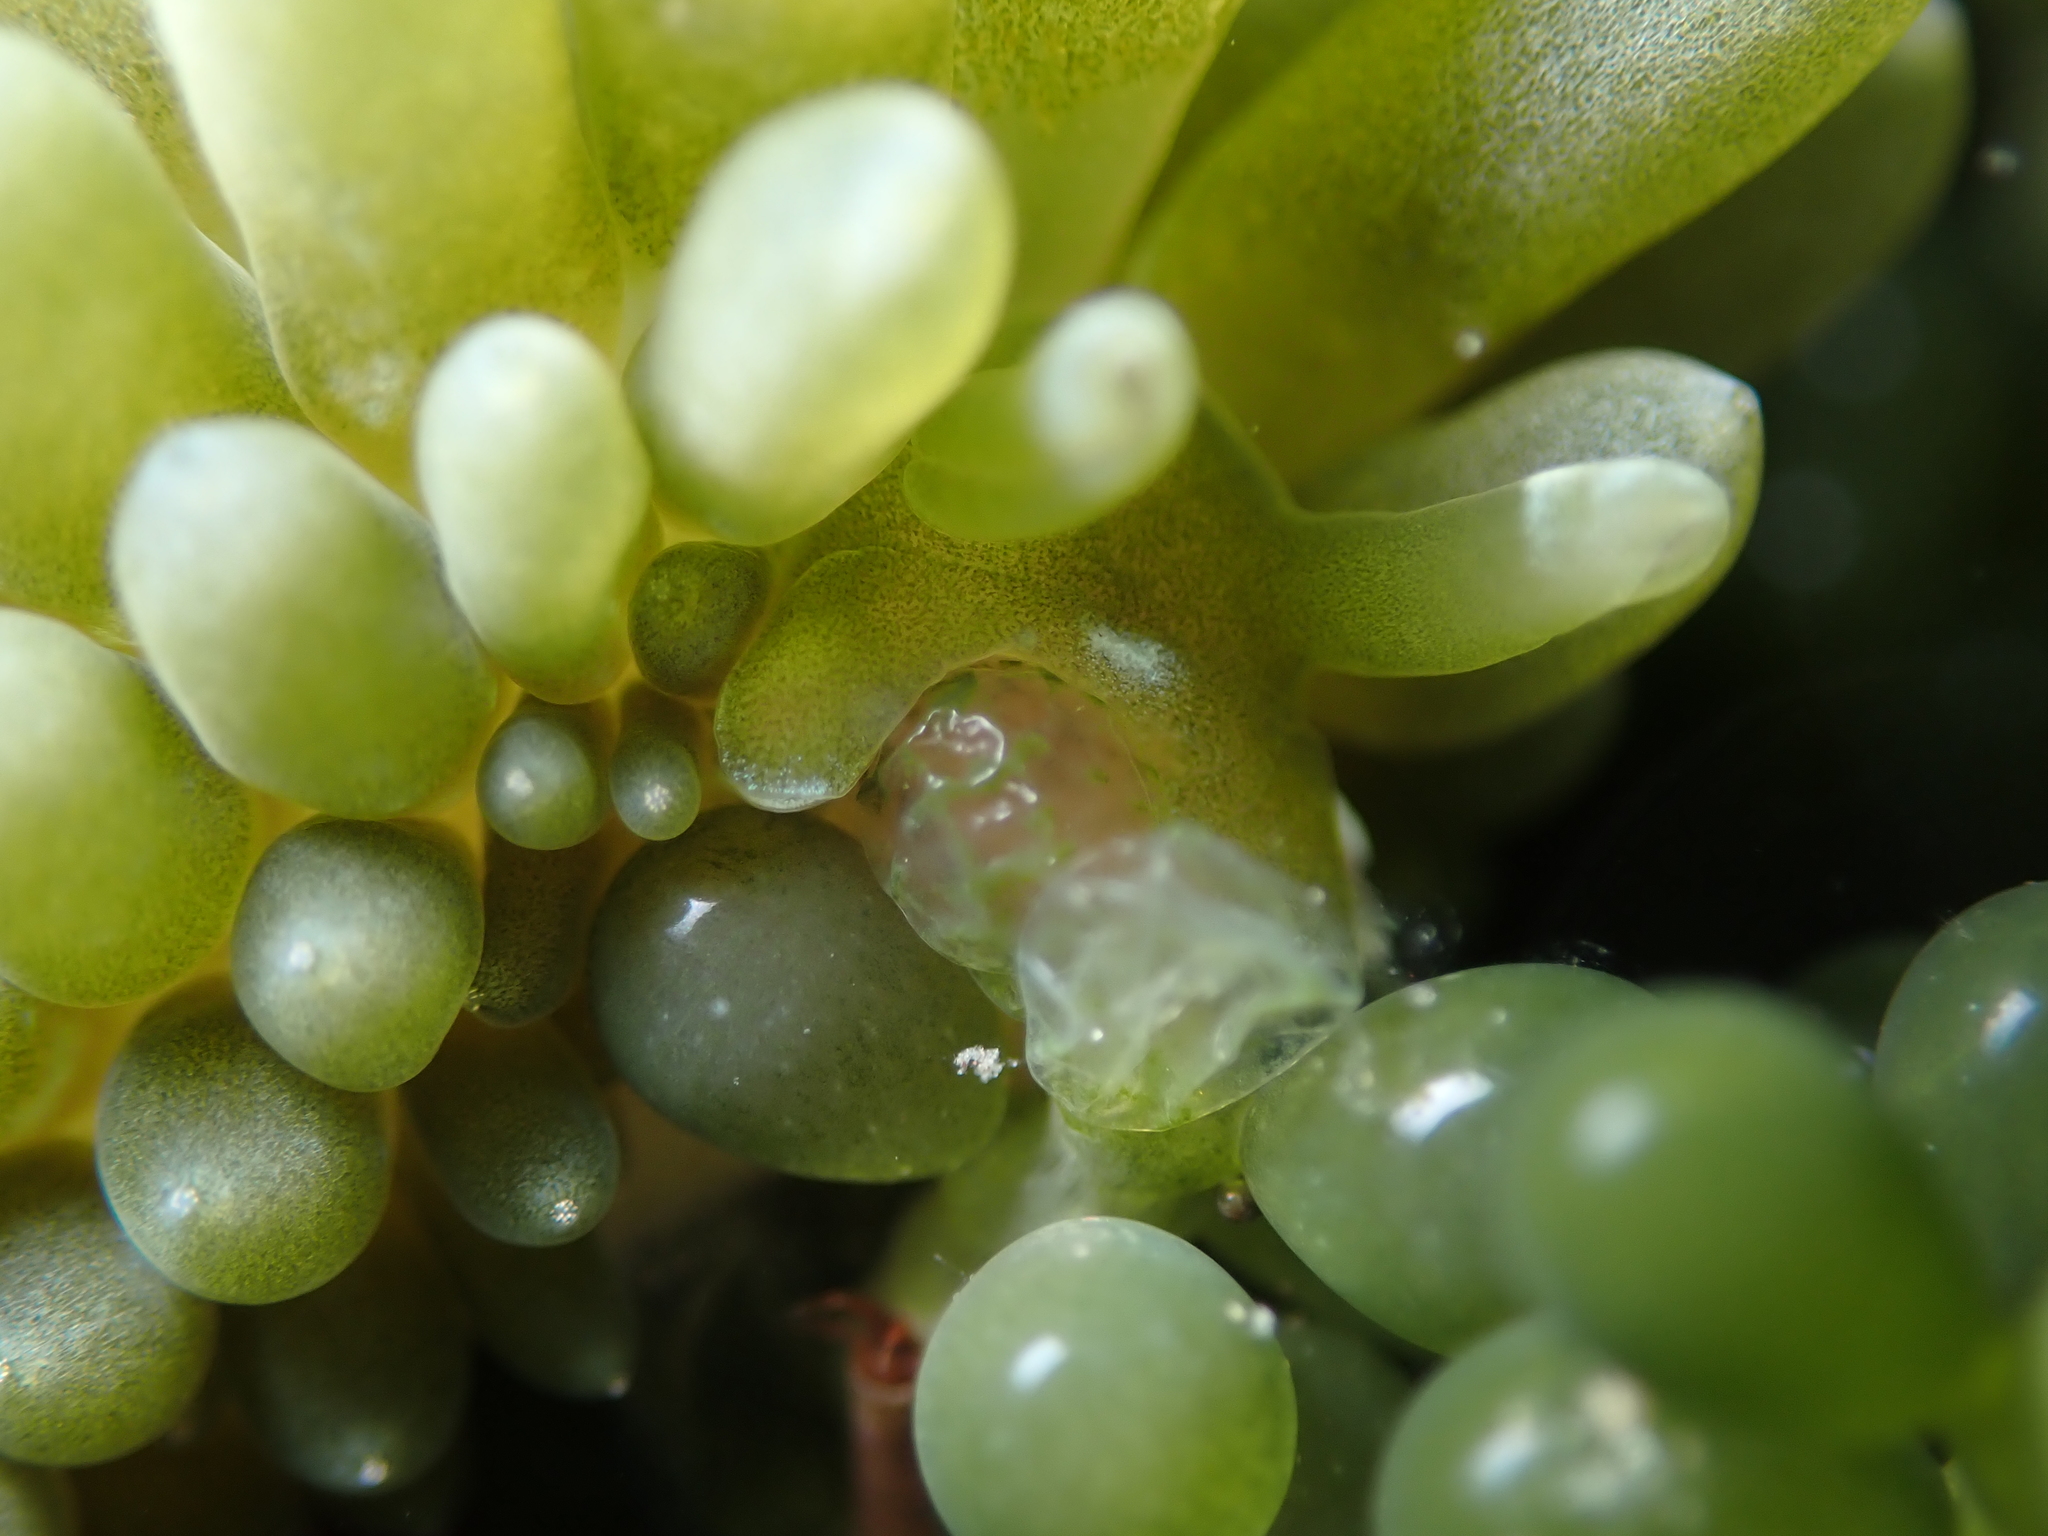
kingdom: Animalia
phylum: Mollusca
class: Gastropoda
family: Limapontiidae
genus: Sacoproteus
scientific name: Sacoproteus smaragdinus
